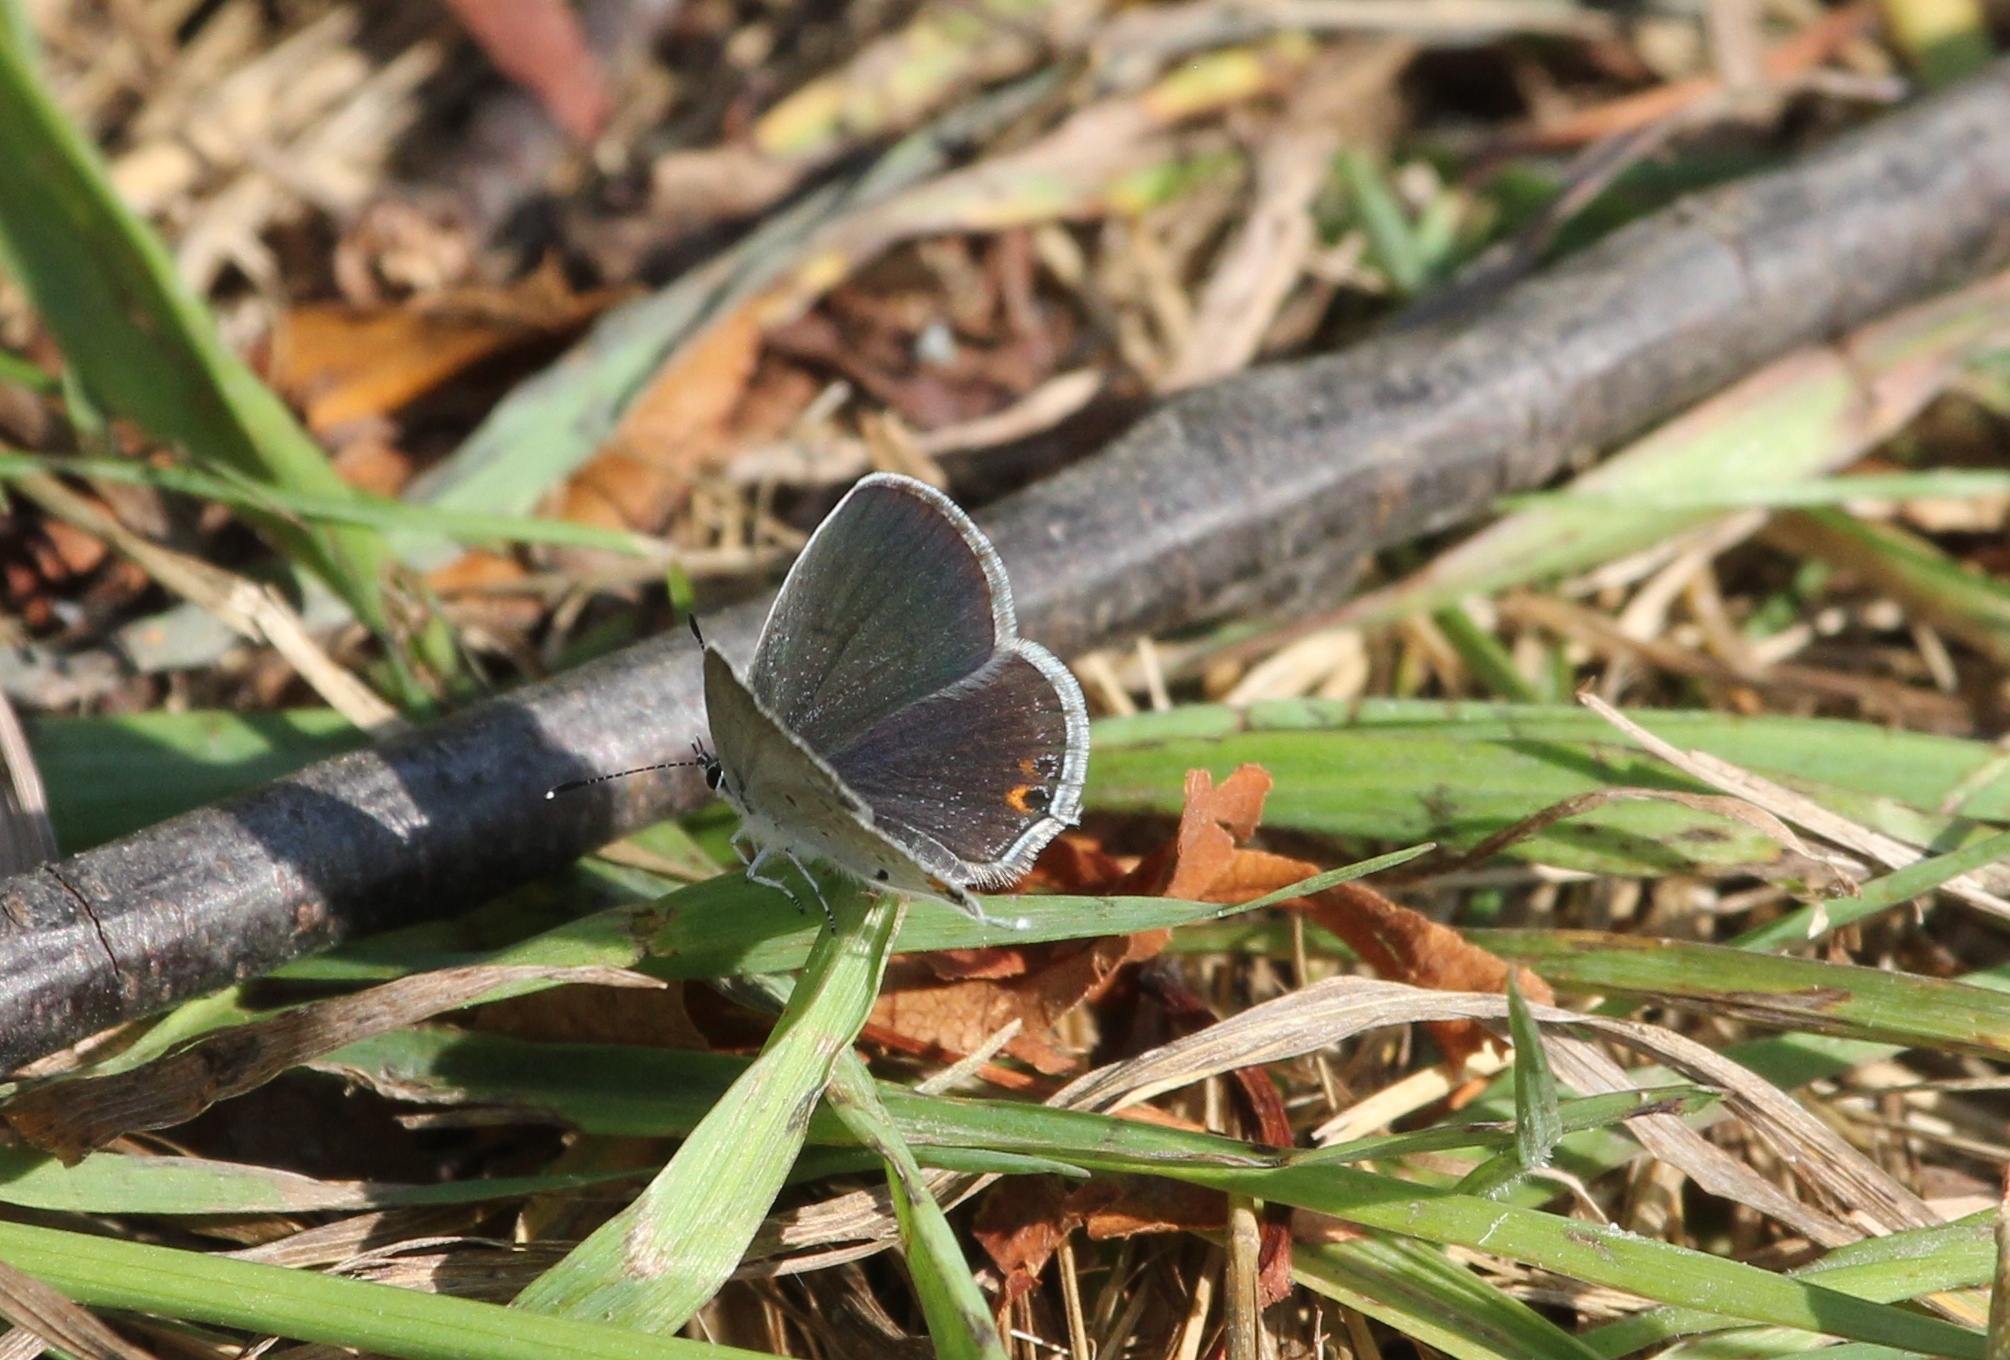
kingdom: Animalia
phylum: Arthropoda
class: Insecta
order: Lepidoptera
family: Lycaenidae
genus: Elkalyce
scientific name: Elkalyce comyntas
